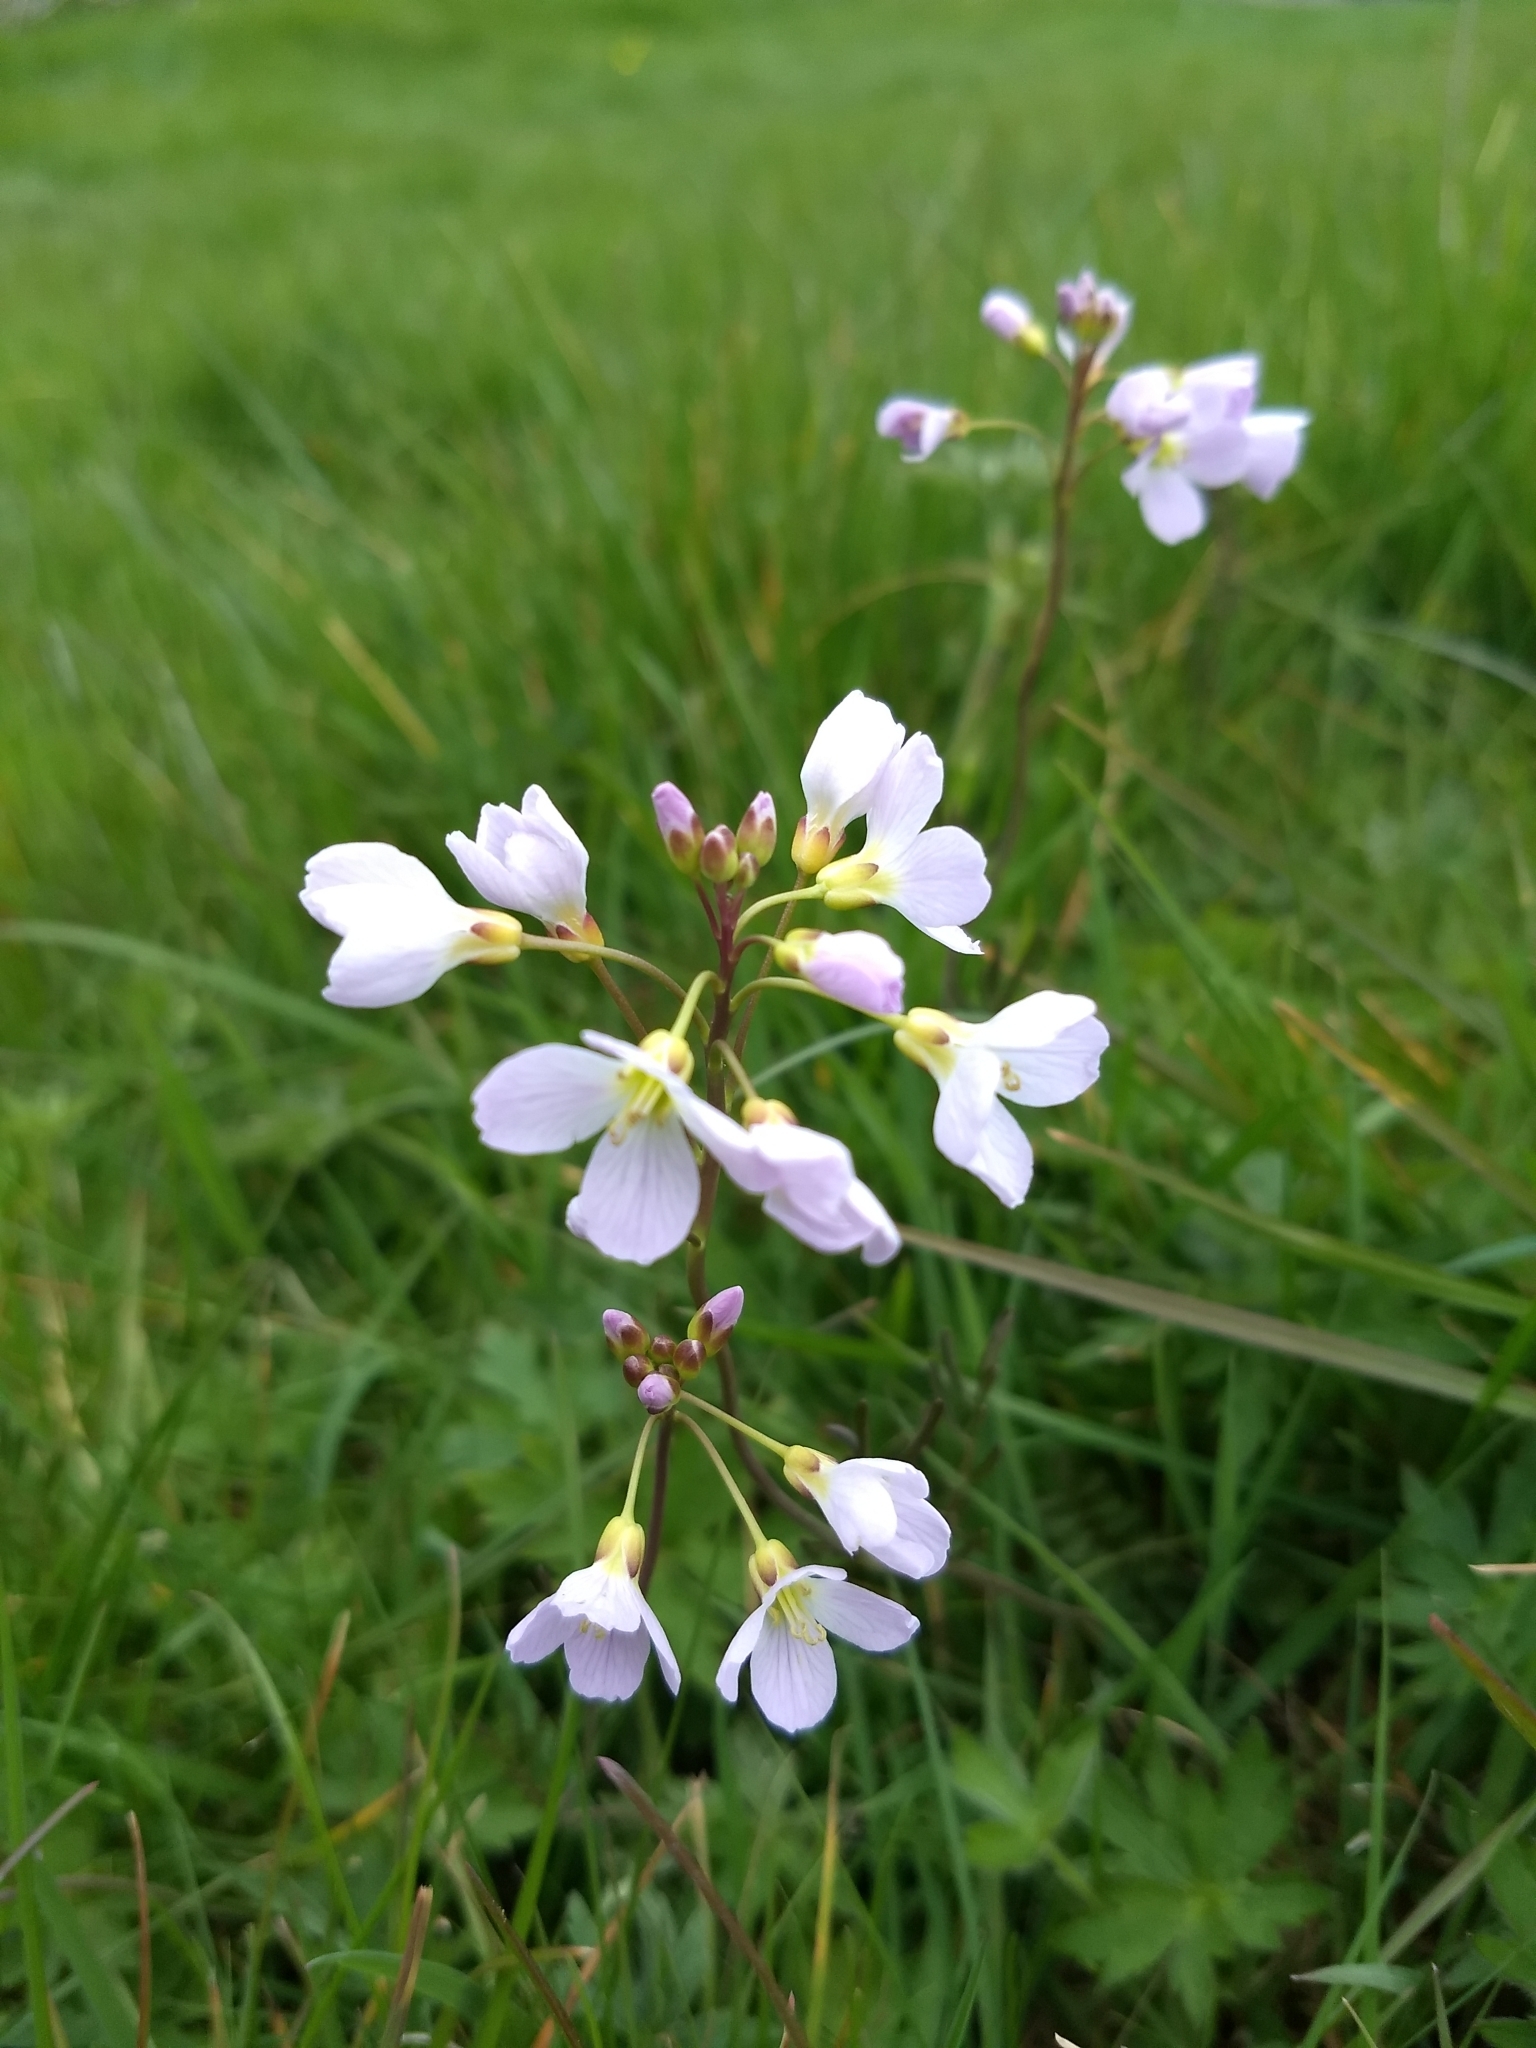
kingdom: Plantae
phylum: Tracheophyta
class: Magnoliopsida
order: Brassicales
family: Brassicaceae
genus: Cardamine
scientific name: Cardamine pratensis
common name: Cuckoo flower
